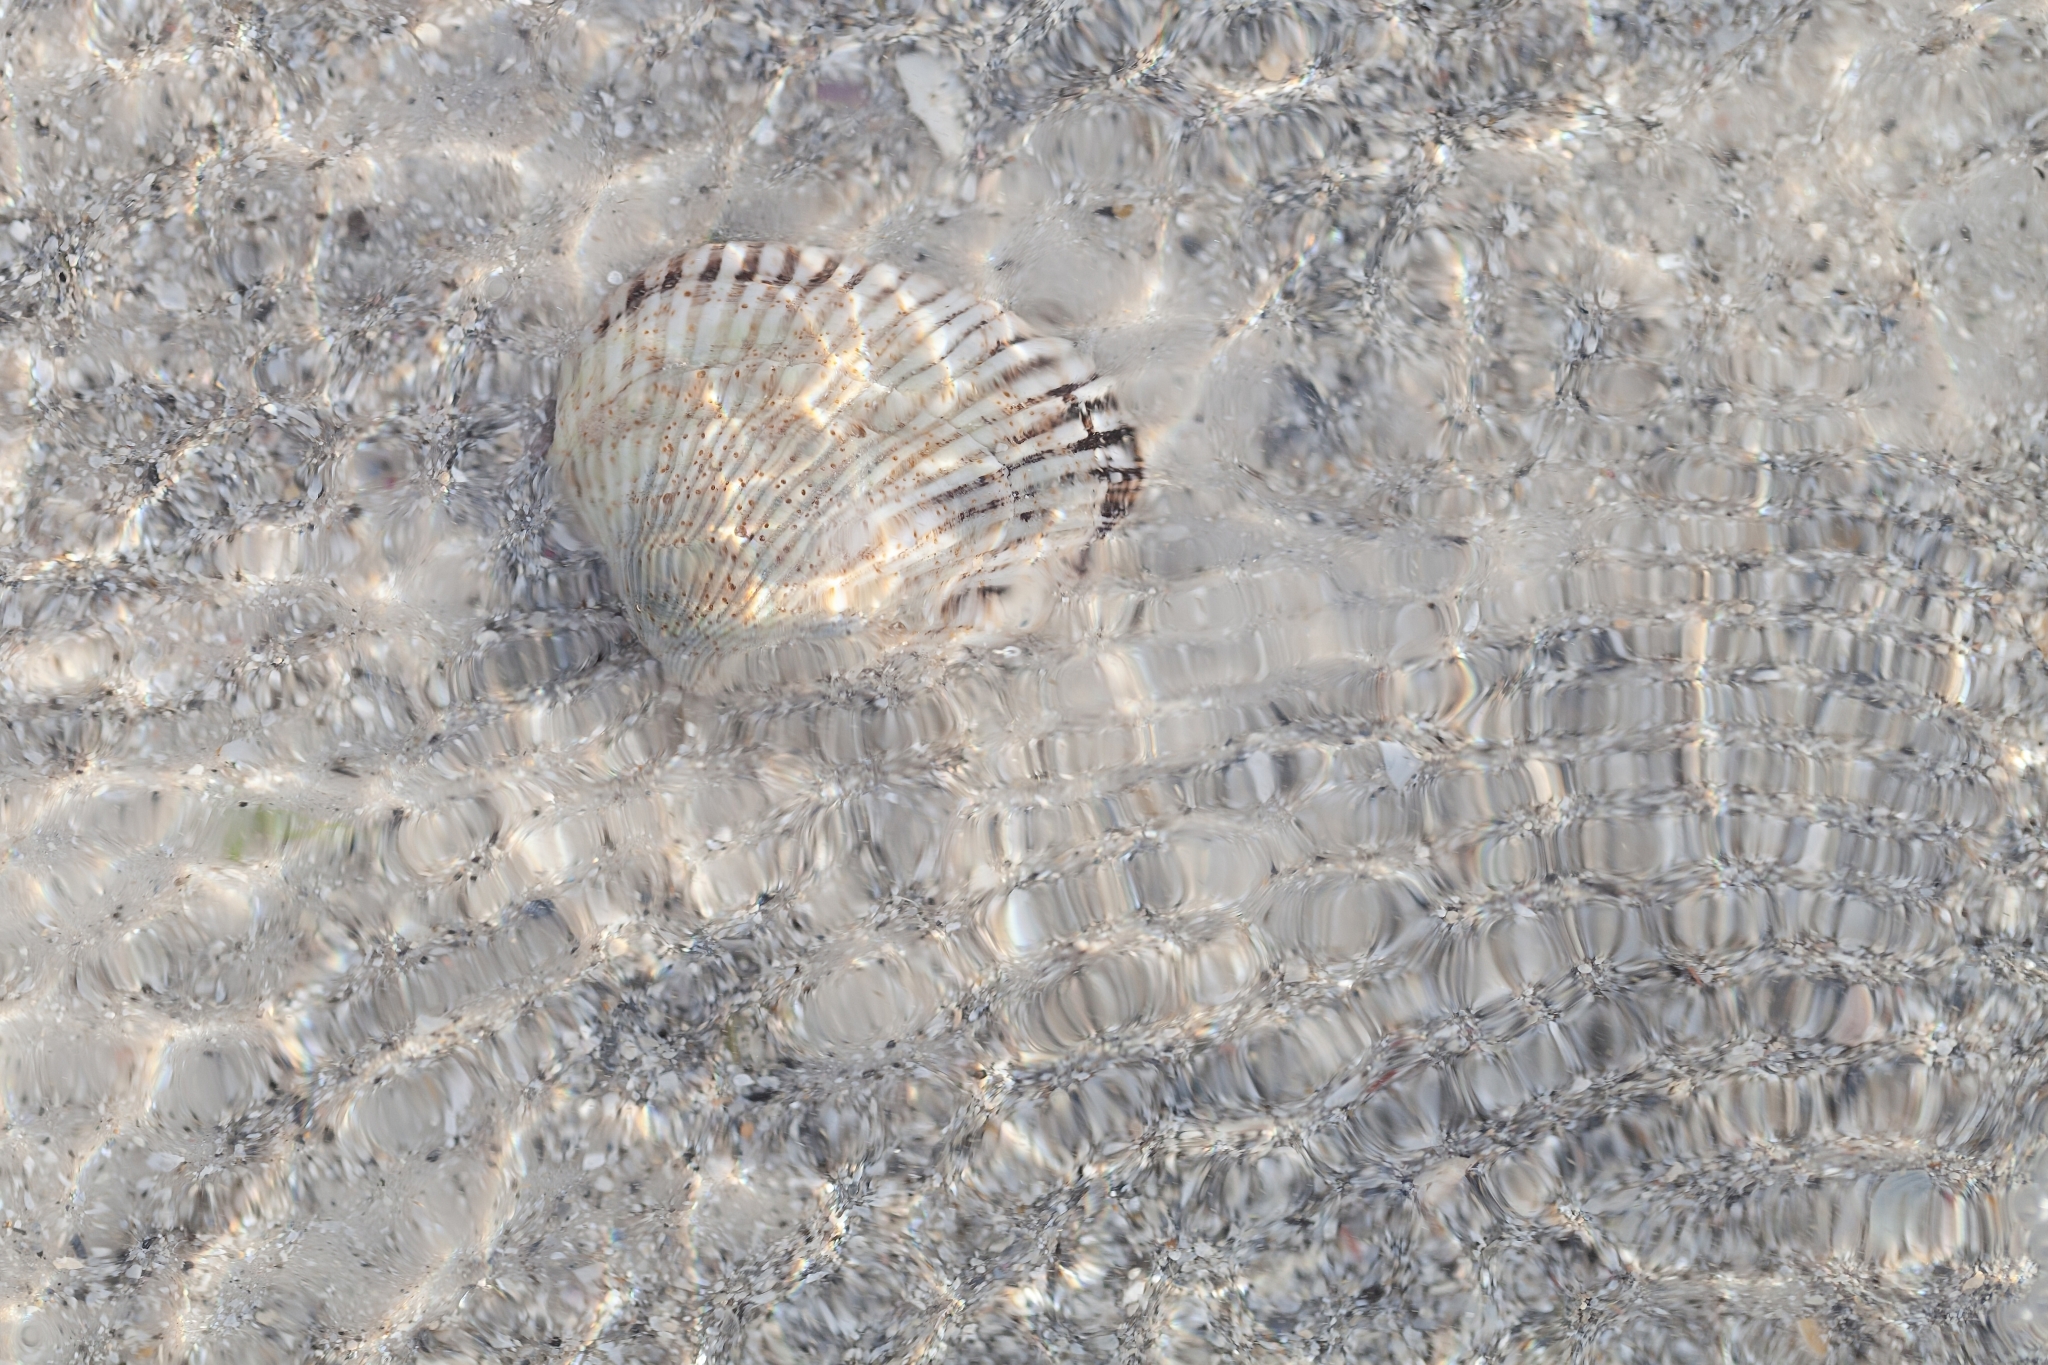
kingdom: Animalia
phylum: Mollusca
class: Bivalvia
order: Arcida
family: Noetiidae
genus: Noetia
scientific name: Noetia ponderosa
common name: Ponderous ark
